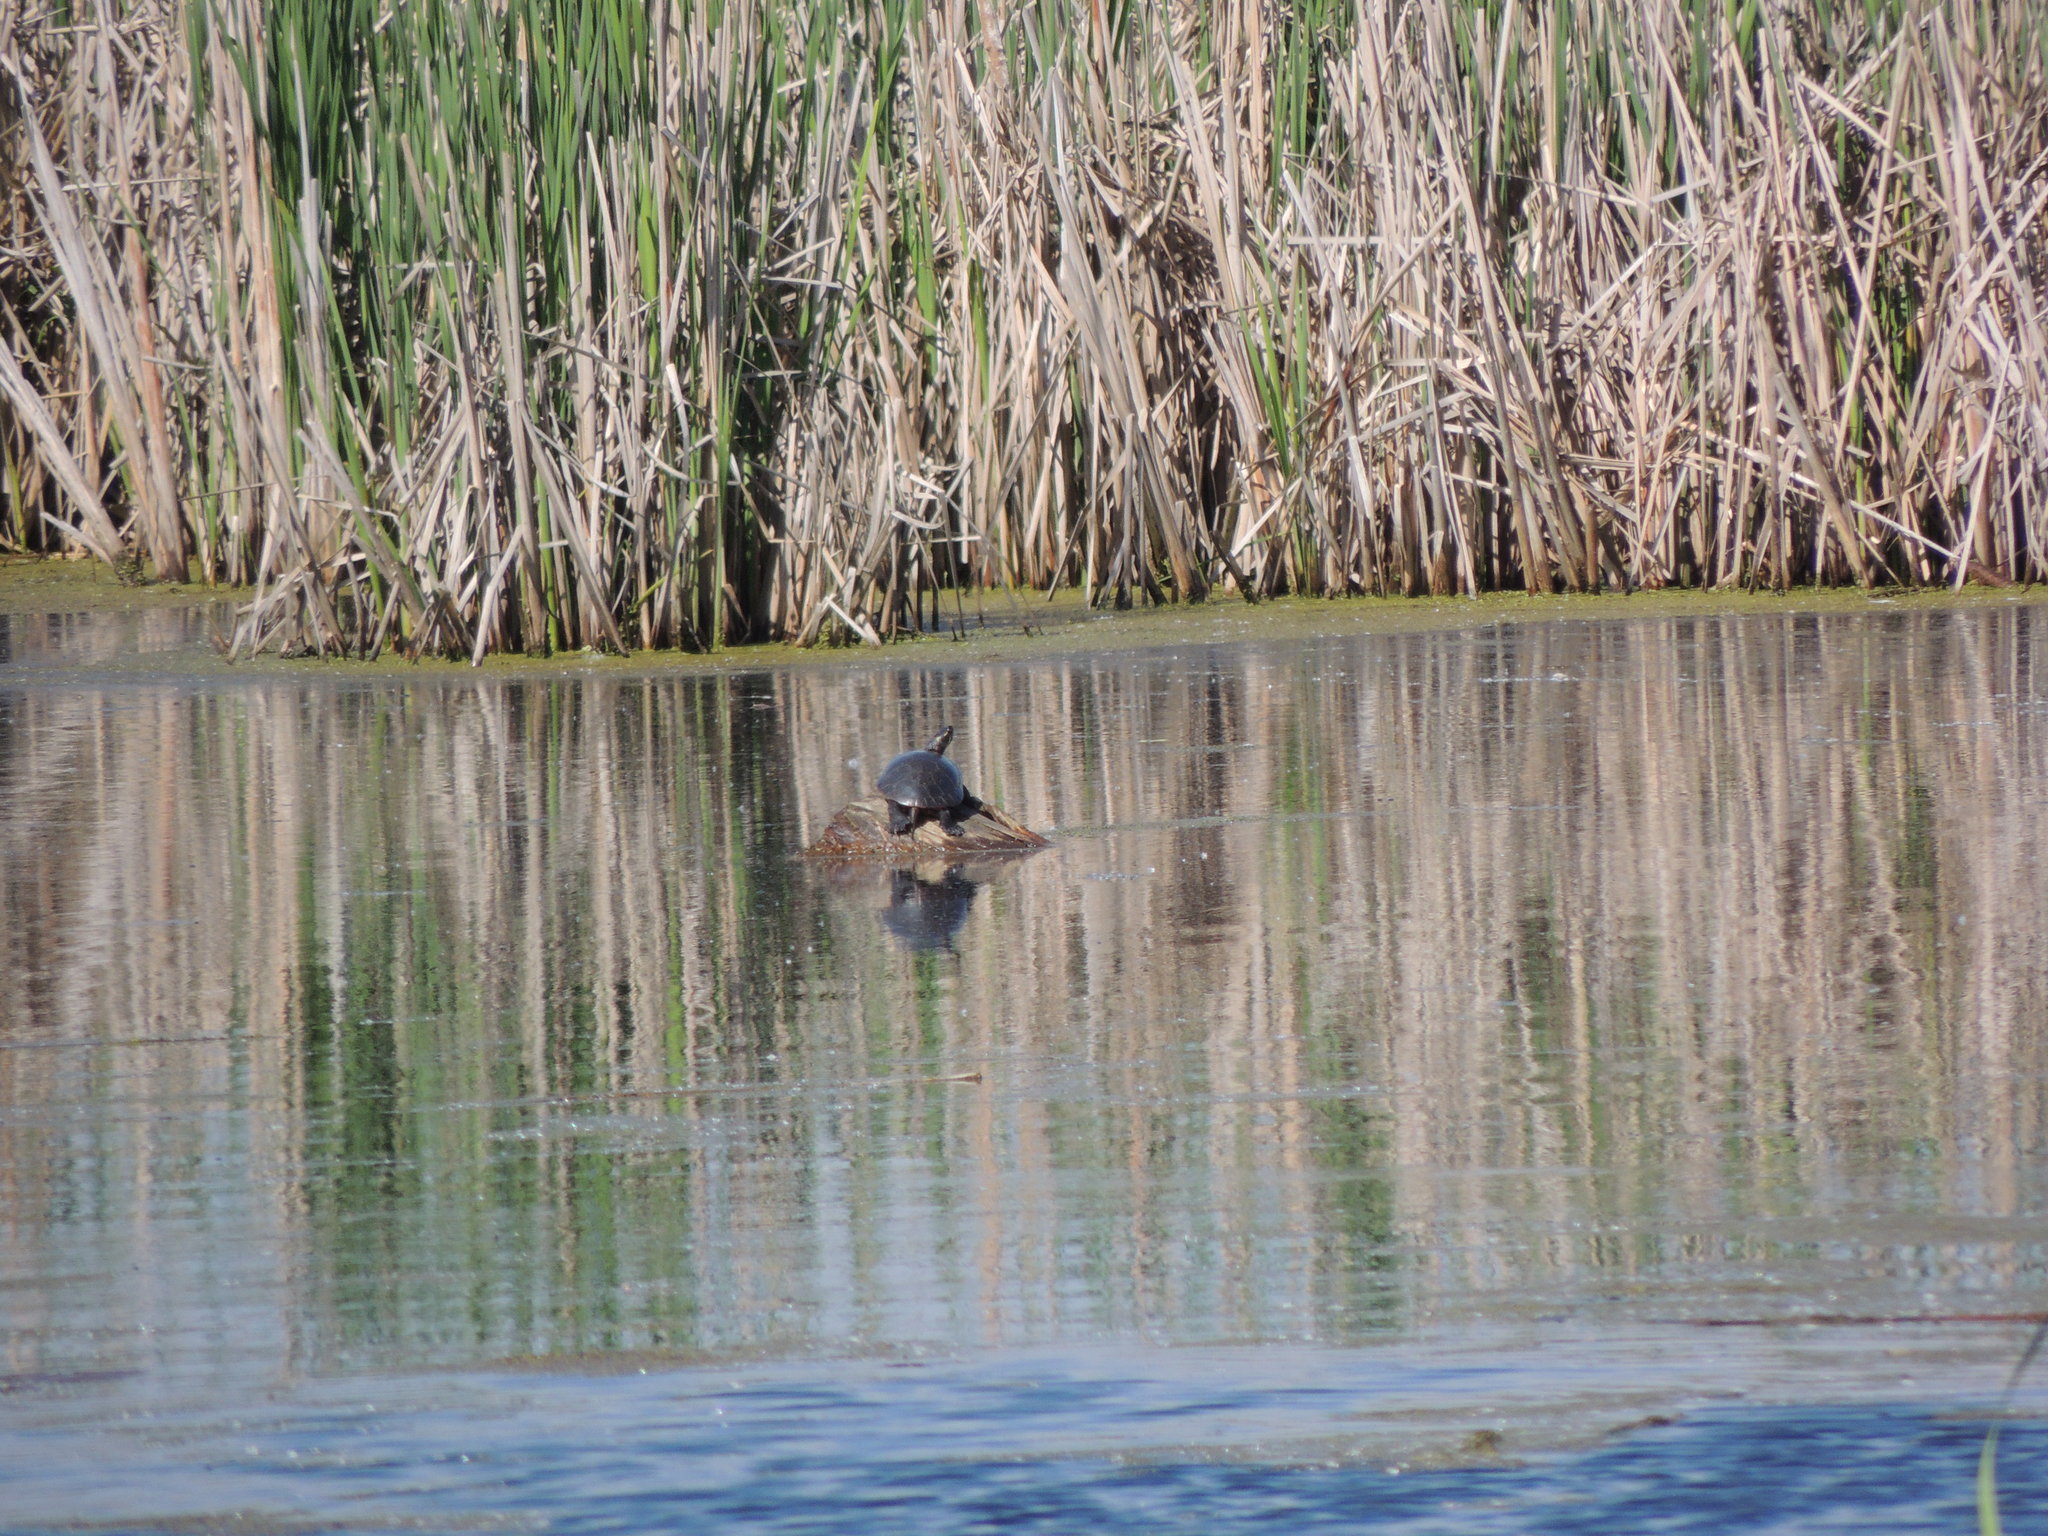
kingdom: Animalia
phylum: Chordata
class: Testudines
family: Emydidae
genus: Chrysemys
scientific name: Chrysemys picta
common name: Painted turtle
